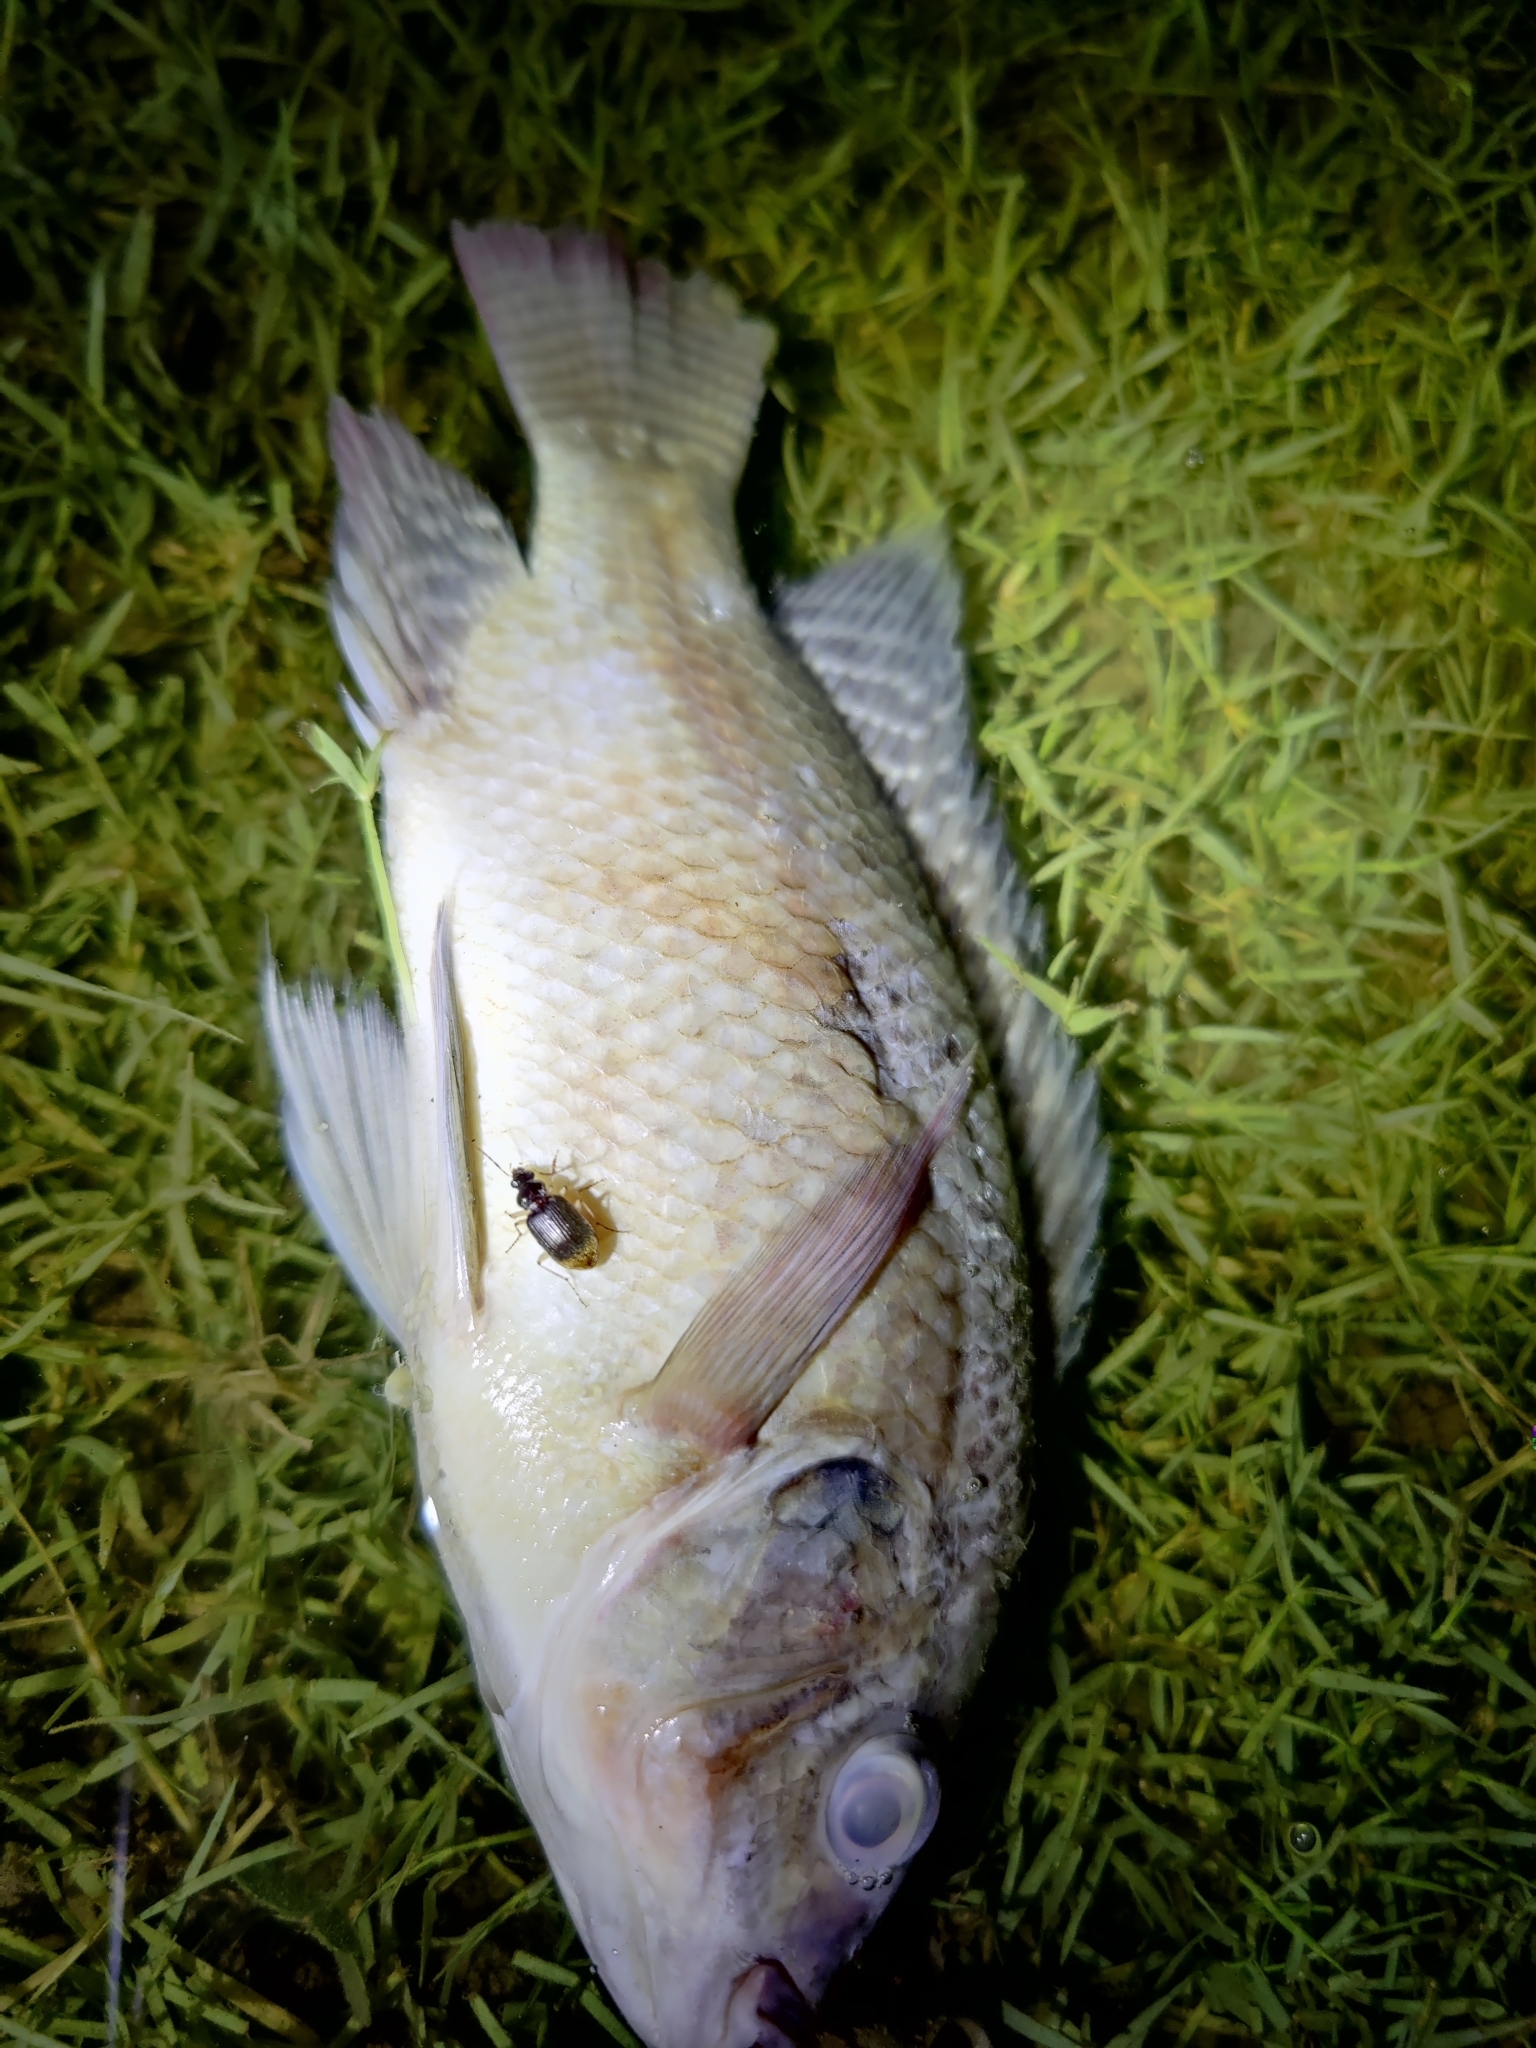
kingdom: Animalia
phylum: Chordata
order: Perciformes
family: Cichlidae
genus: Oreochromis
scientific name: Oreochromis niloticus
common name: Nile tilapia
